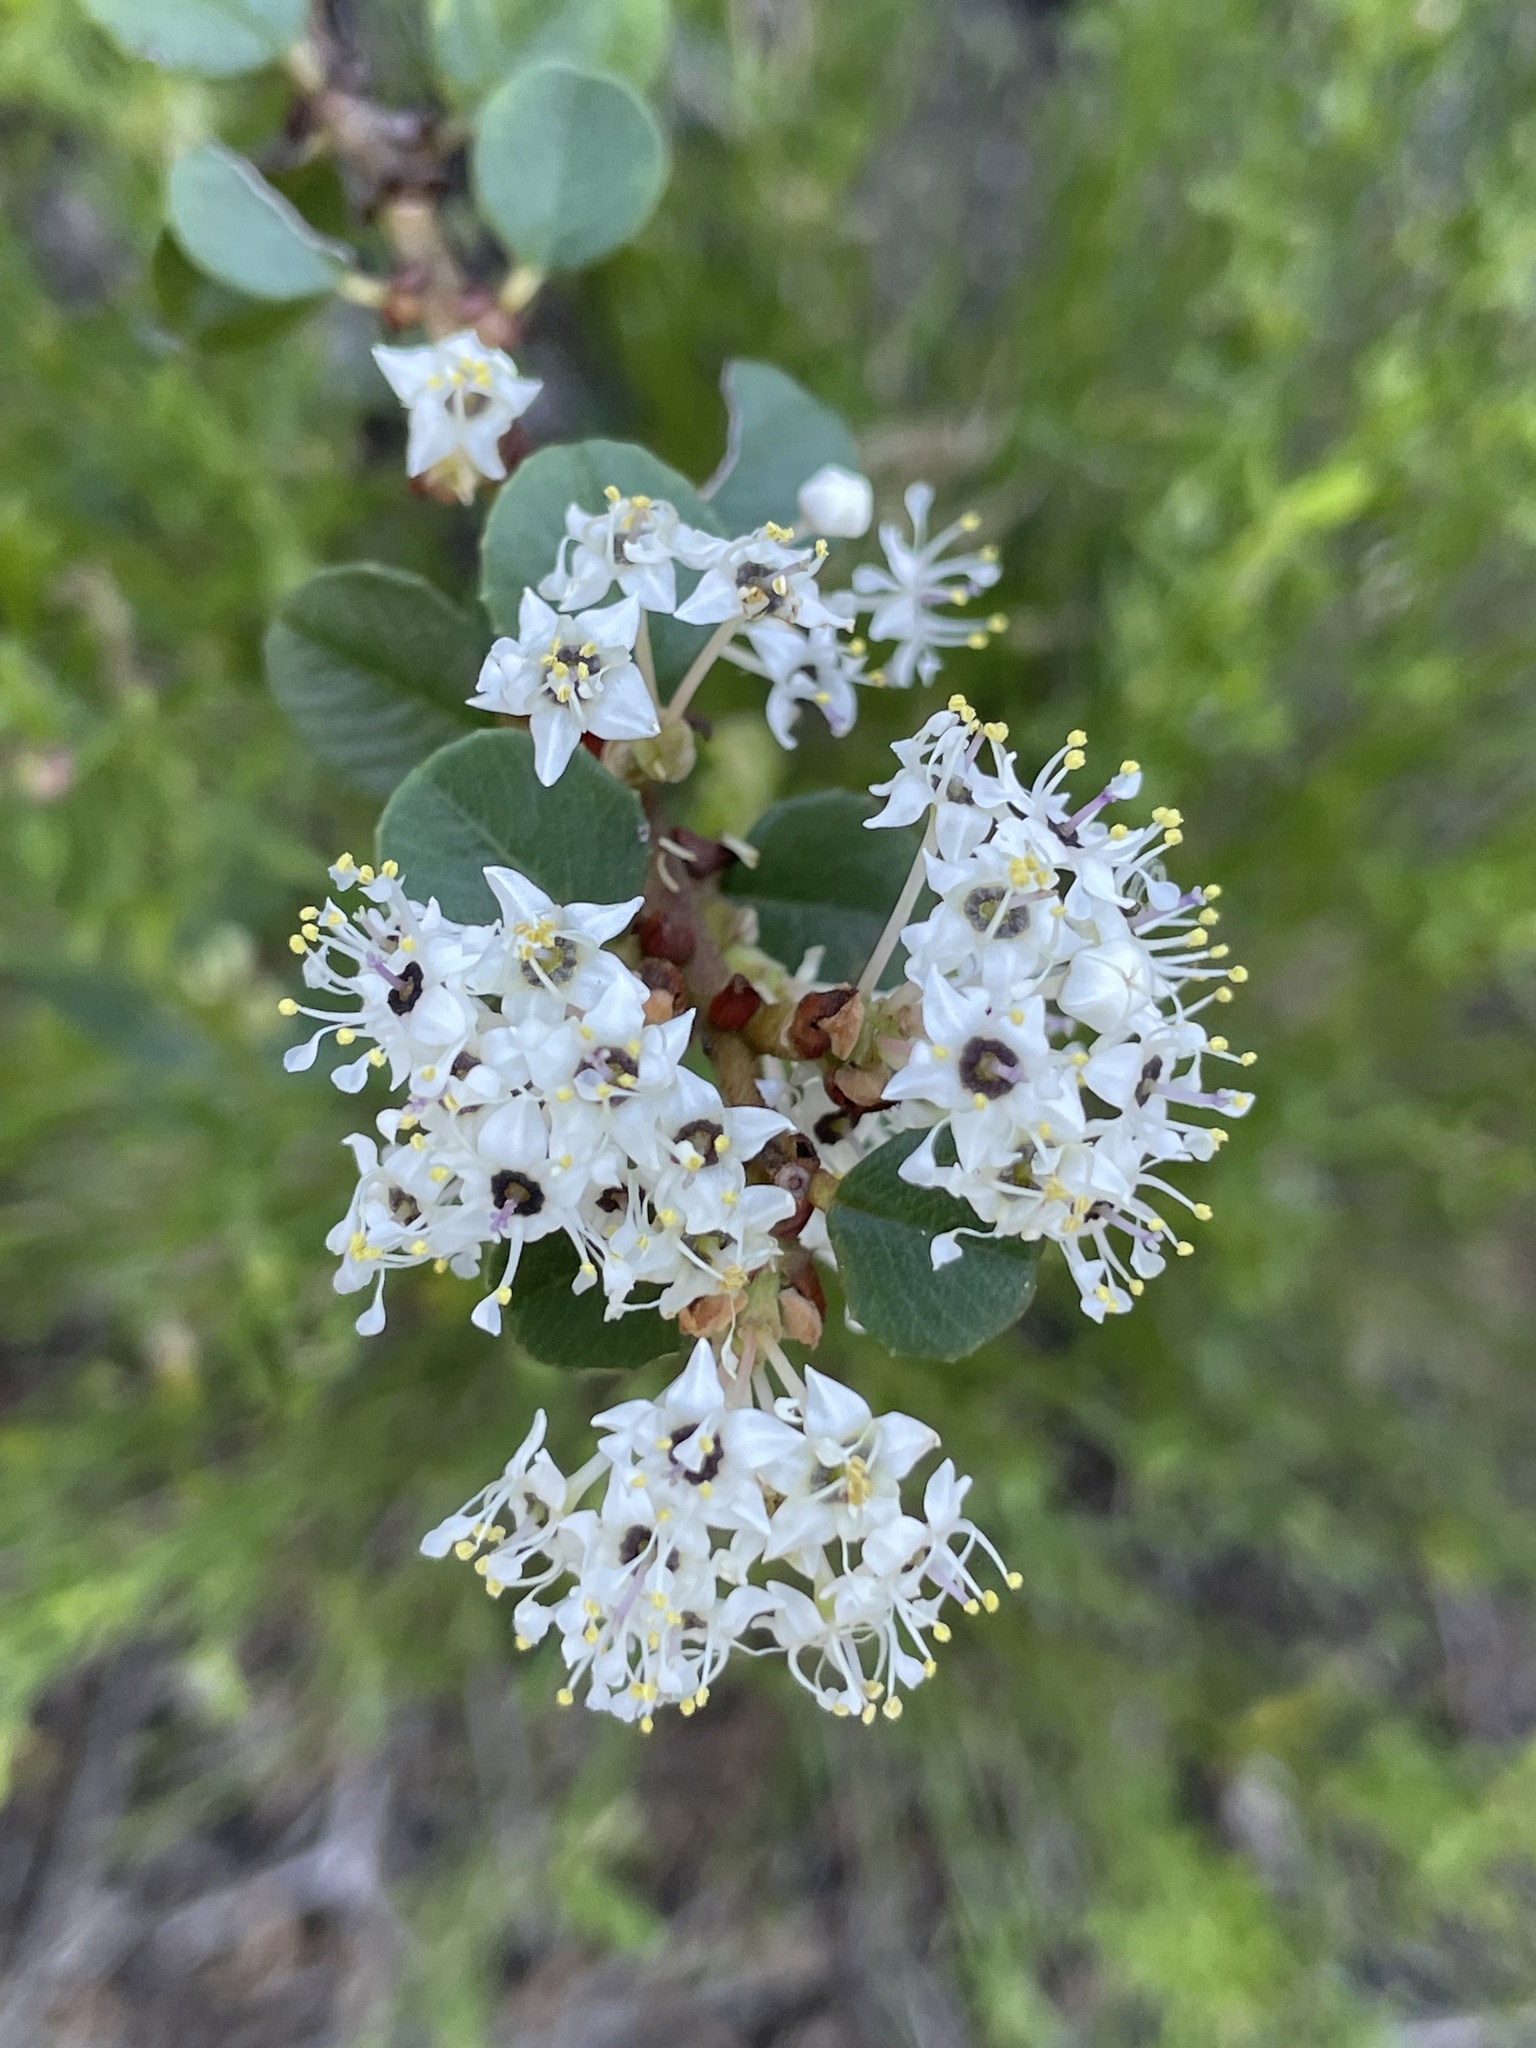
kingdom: Plantae
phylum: Tracheophyta
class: Magnoliopsida
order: Rosales
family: Rhamnaceae
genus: Ceanothus
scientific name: Ceanothus verrucosus
